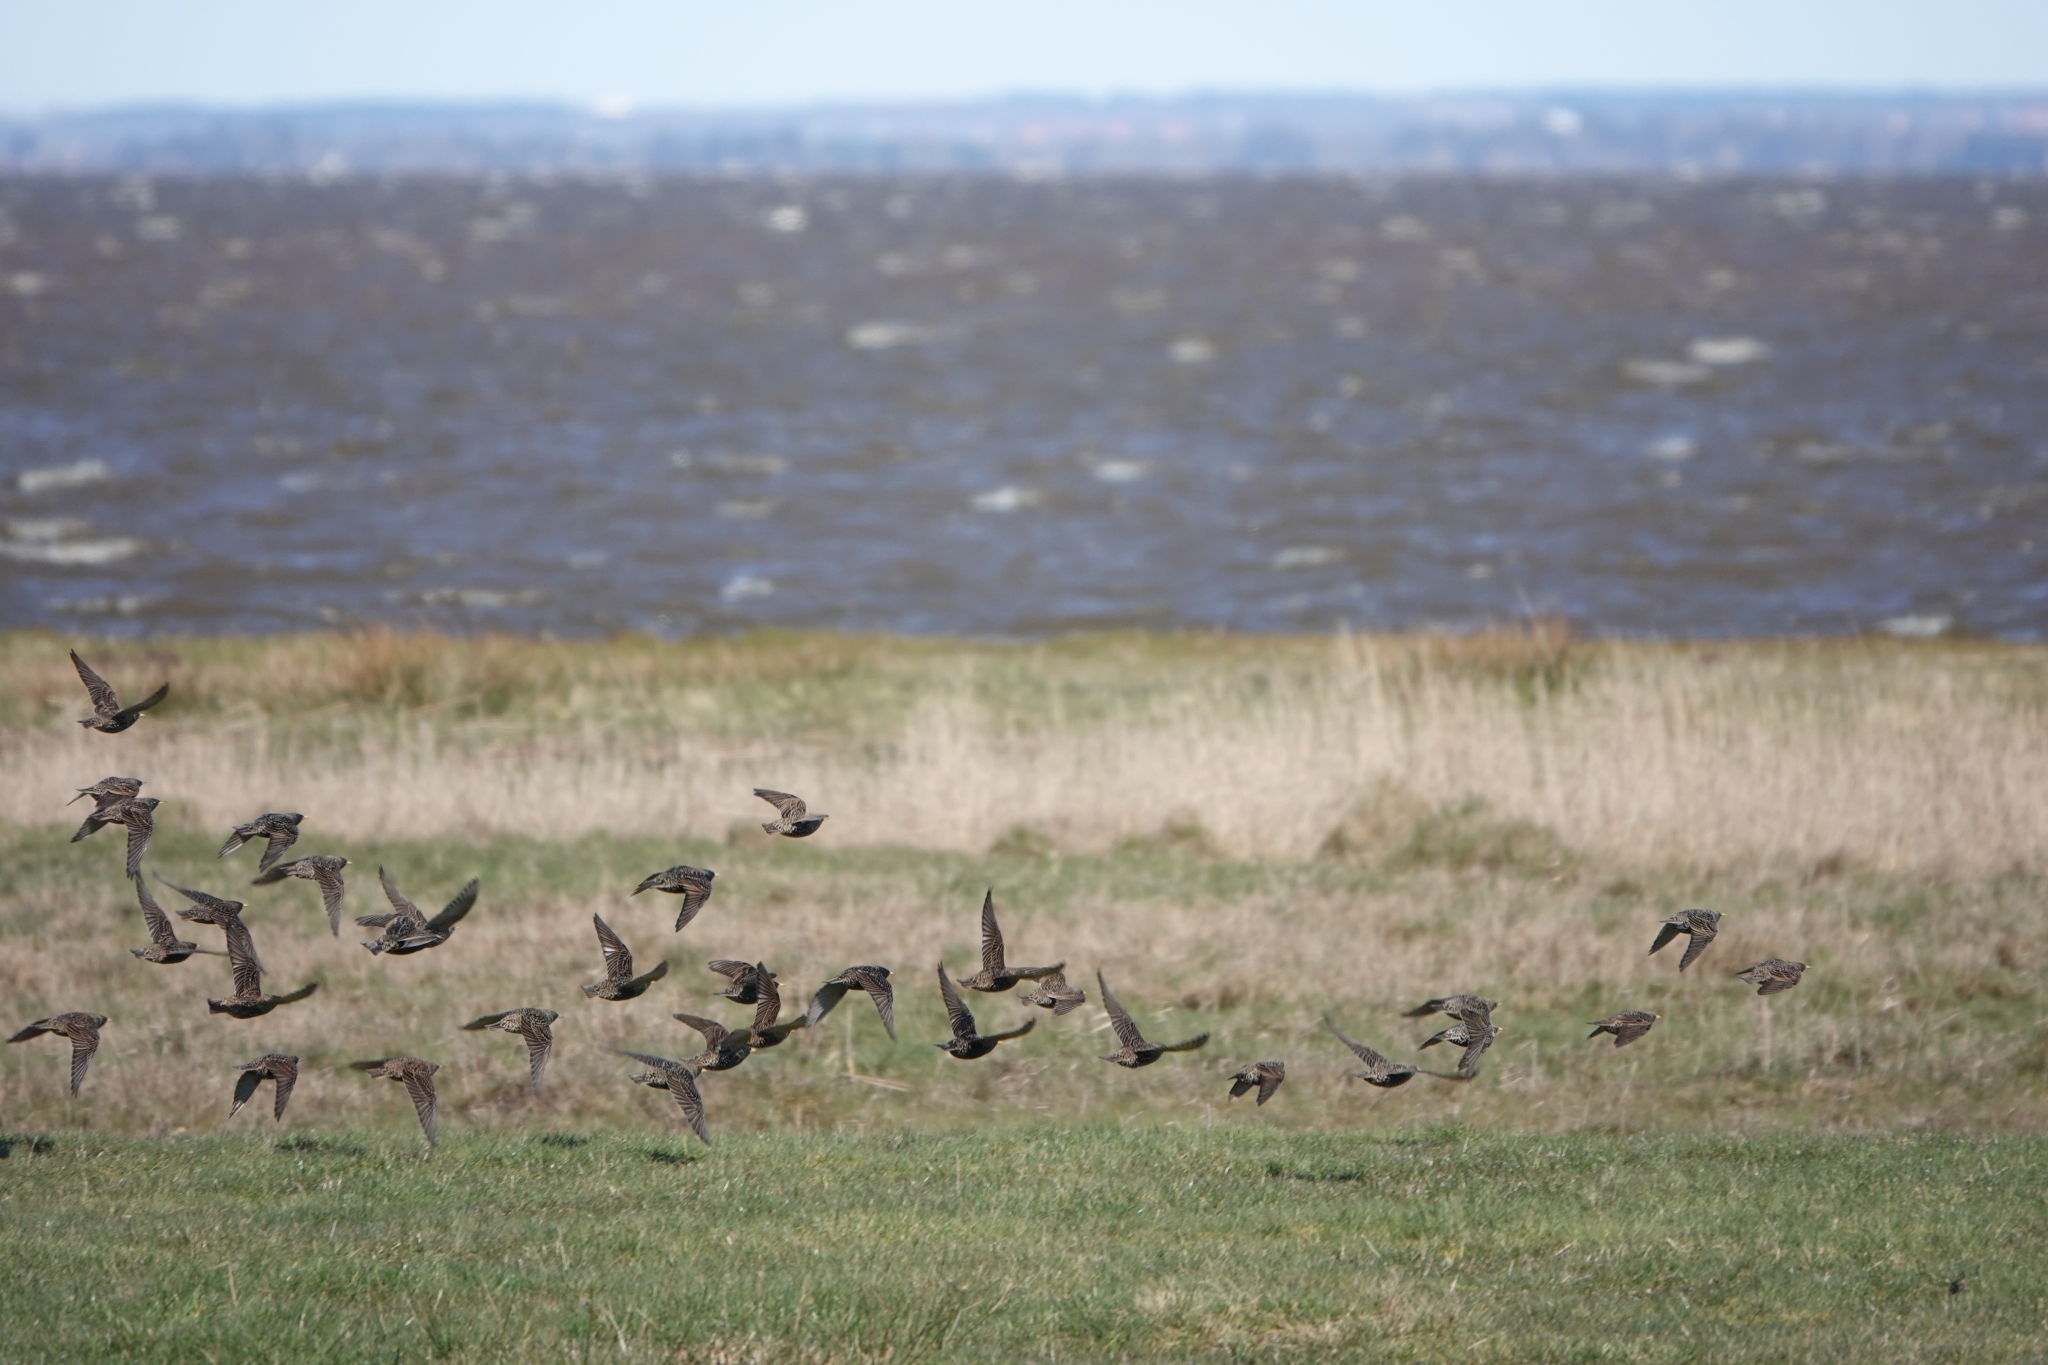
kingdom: Animalia
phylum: Chordata
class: Aves
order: Passeriformes
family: Sturnidae
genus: Sturnus
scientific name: Sturnus vulgaris
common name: Common starling
